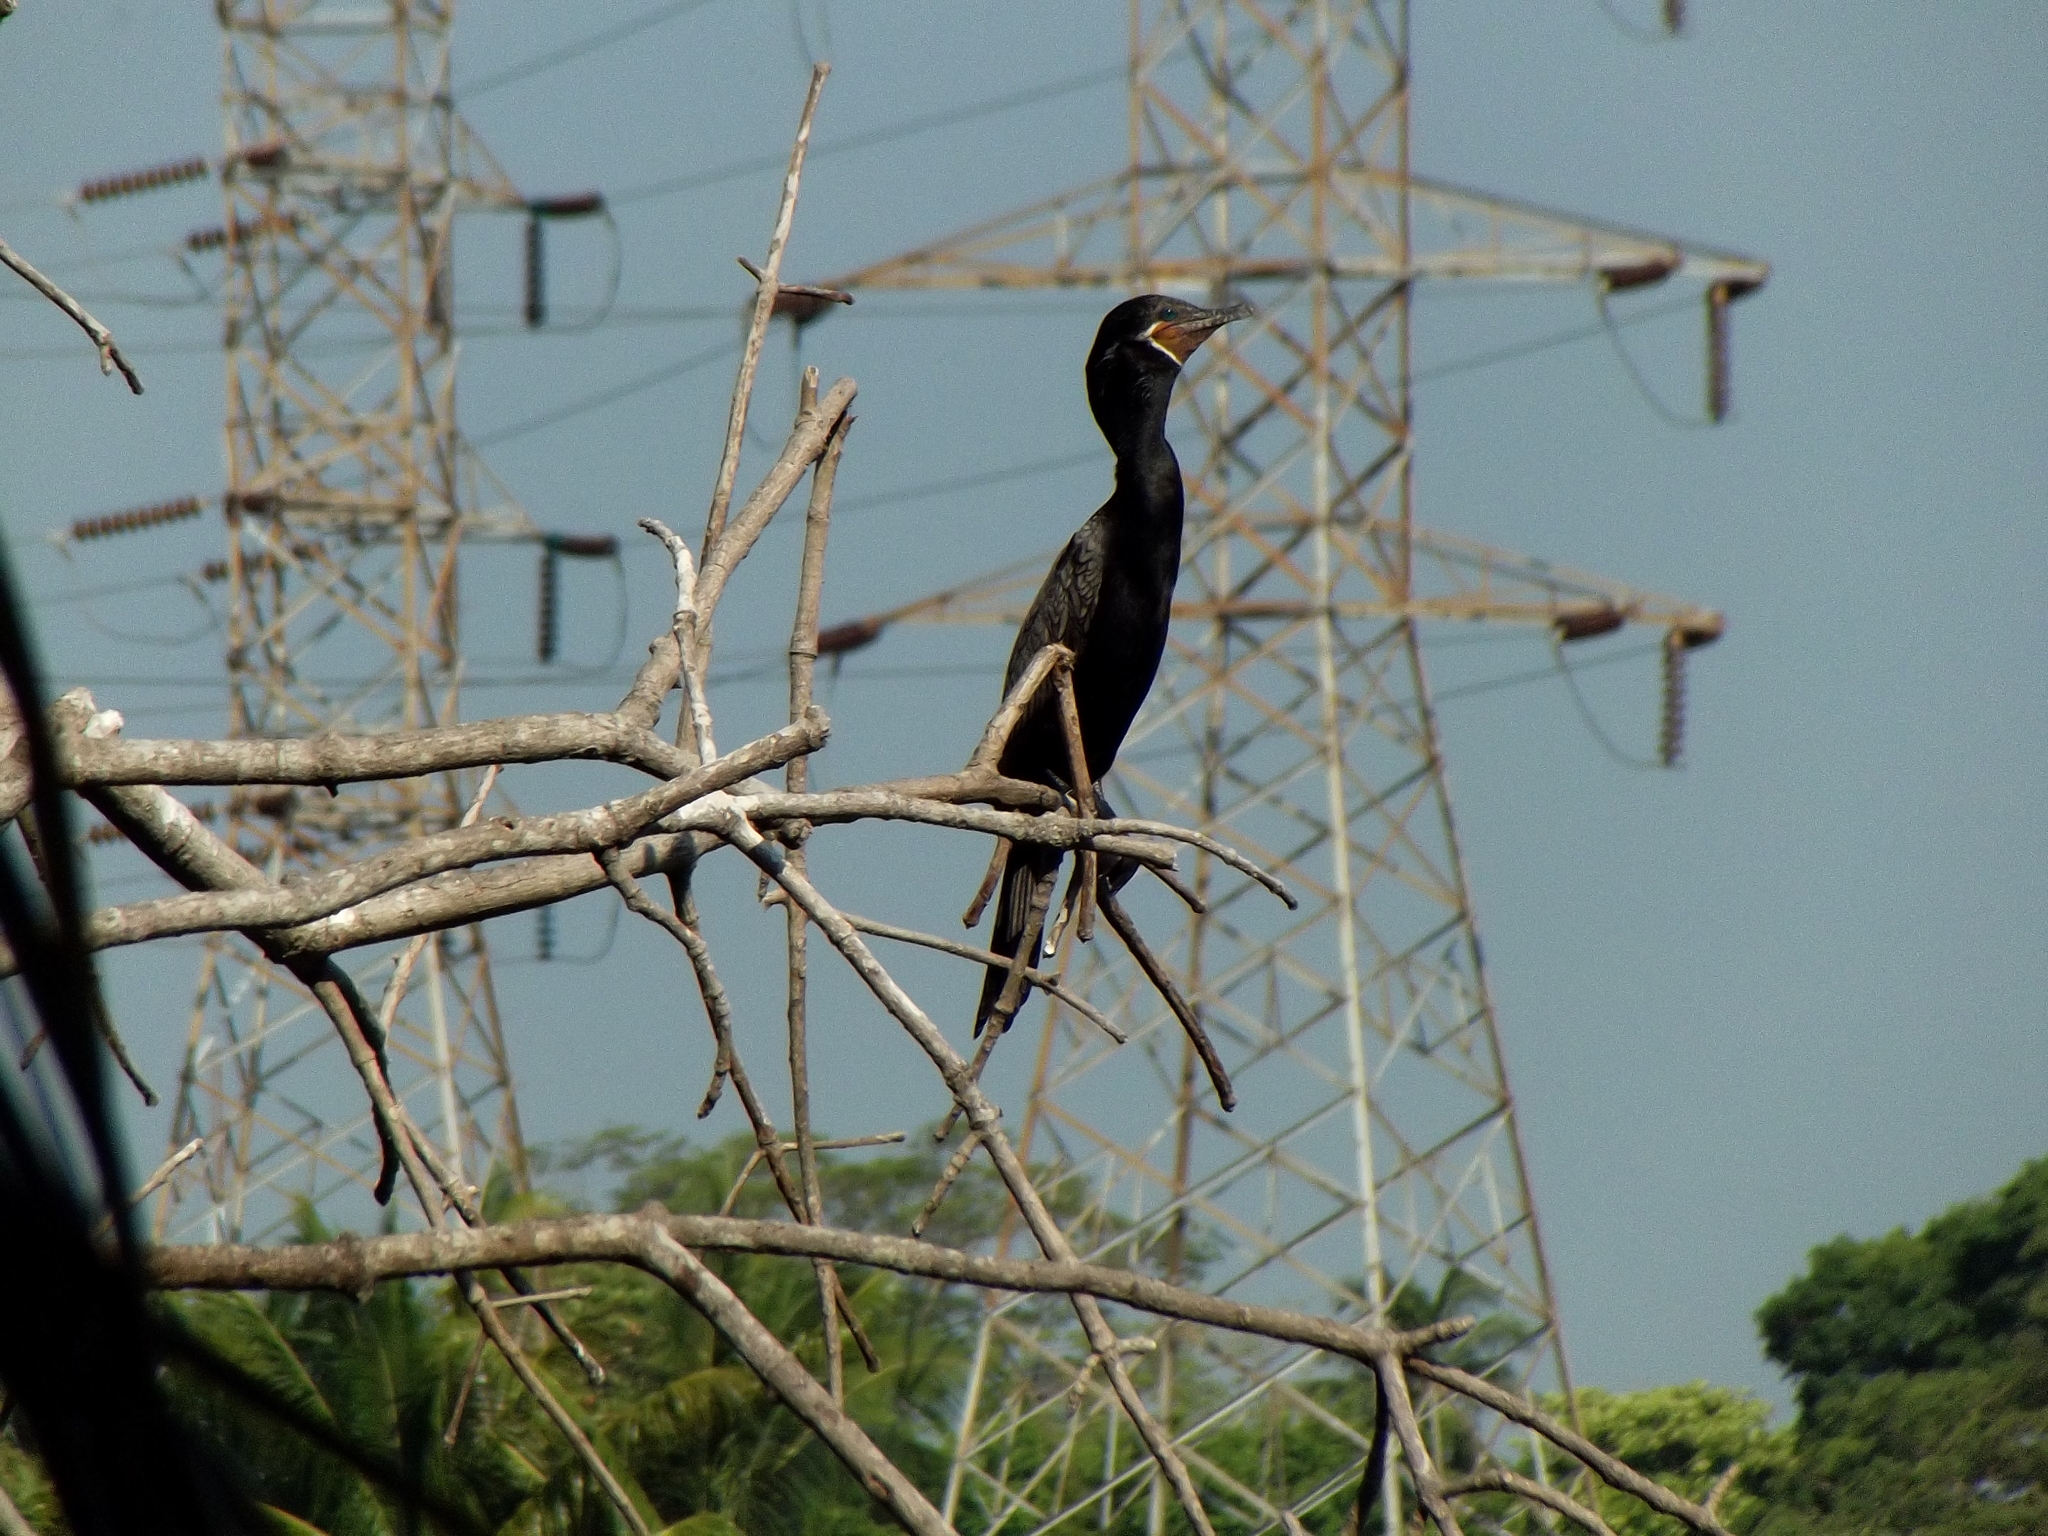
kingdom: Animalia
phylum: Chordata
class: Aves
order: Suliformes
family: Phalacrocoracidae
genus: Phalacrocorax
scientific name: Phalacrocorax brasilianus
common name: Neotropic cormorant
